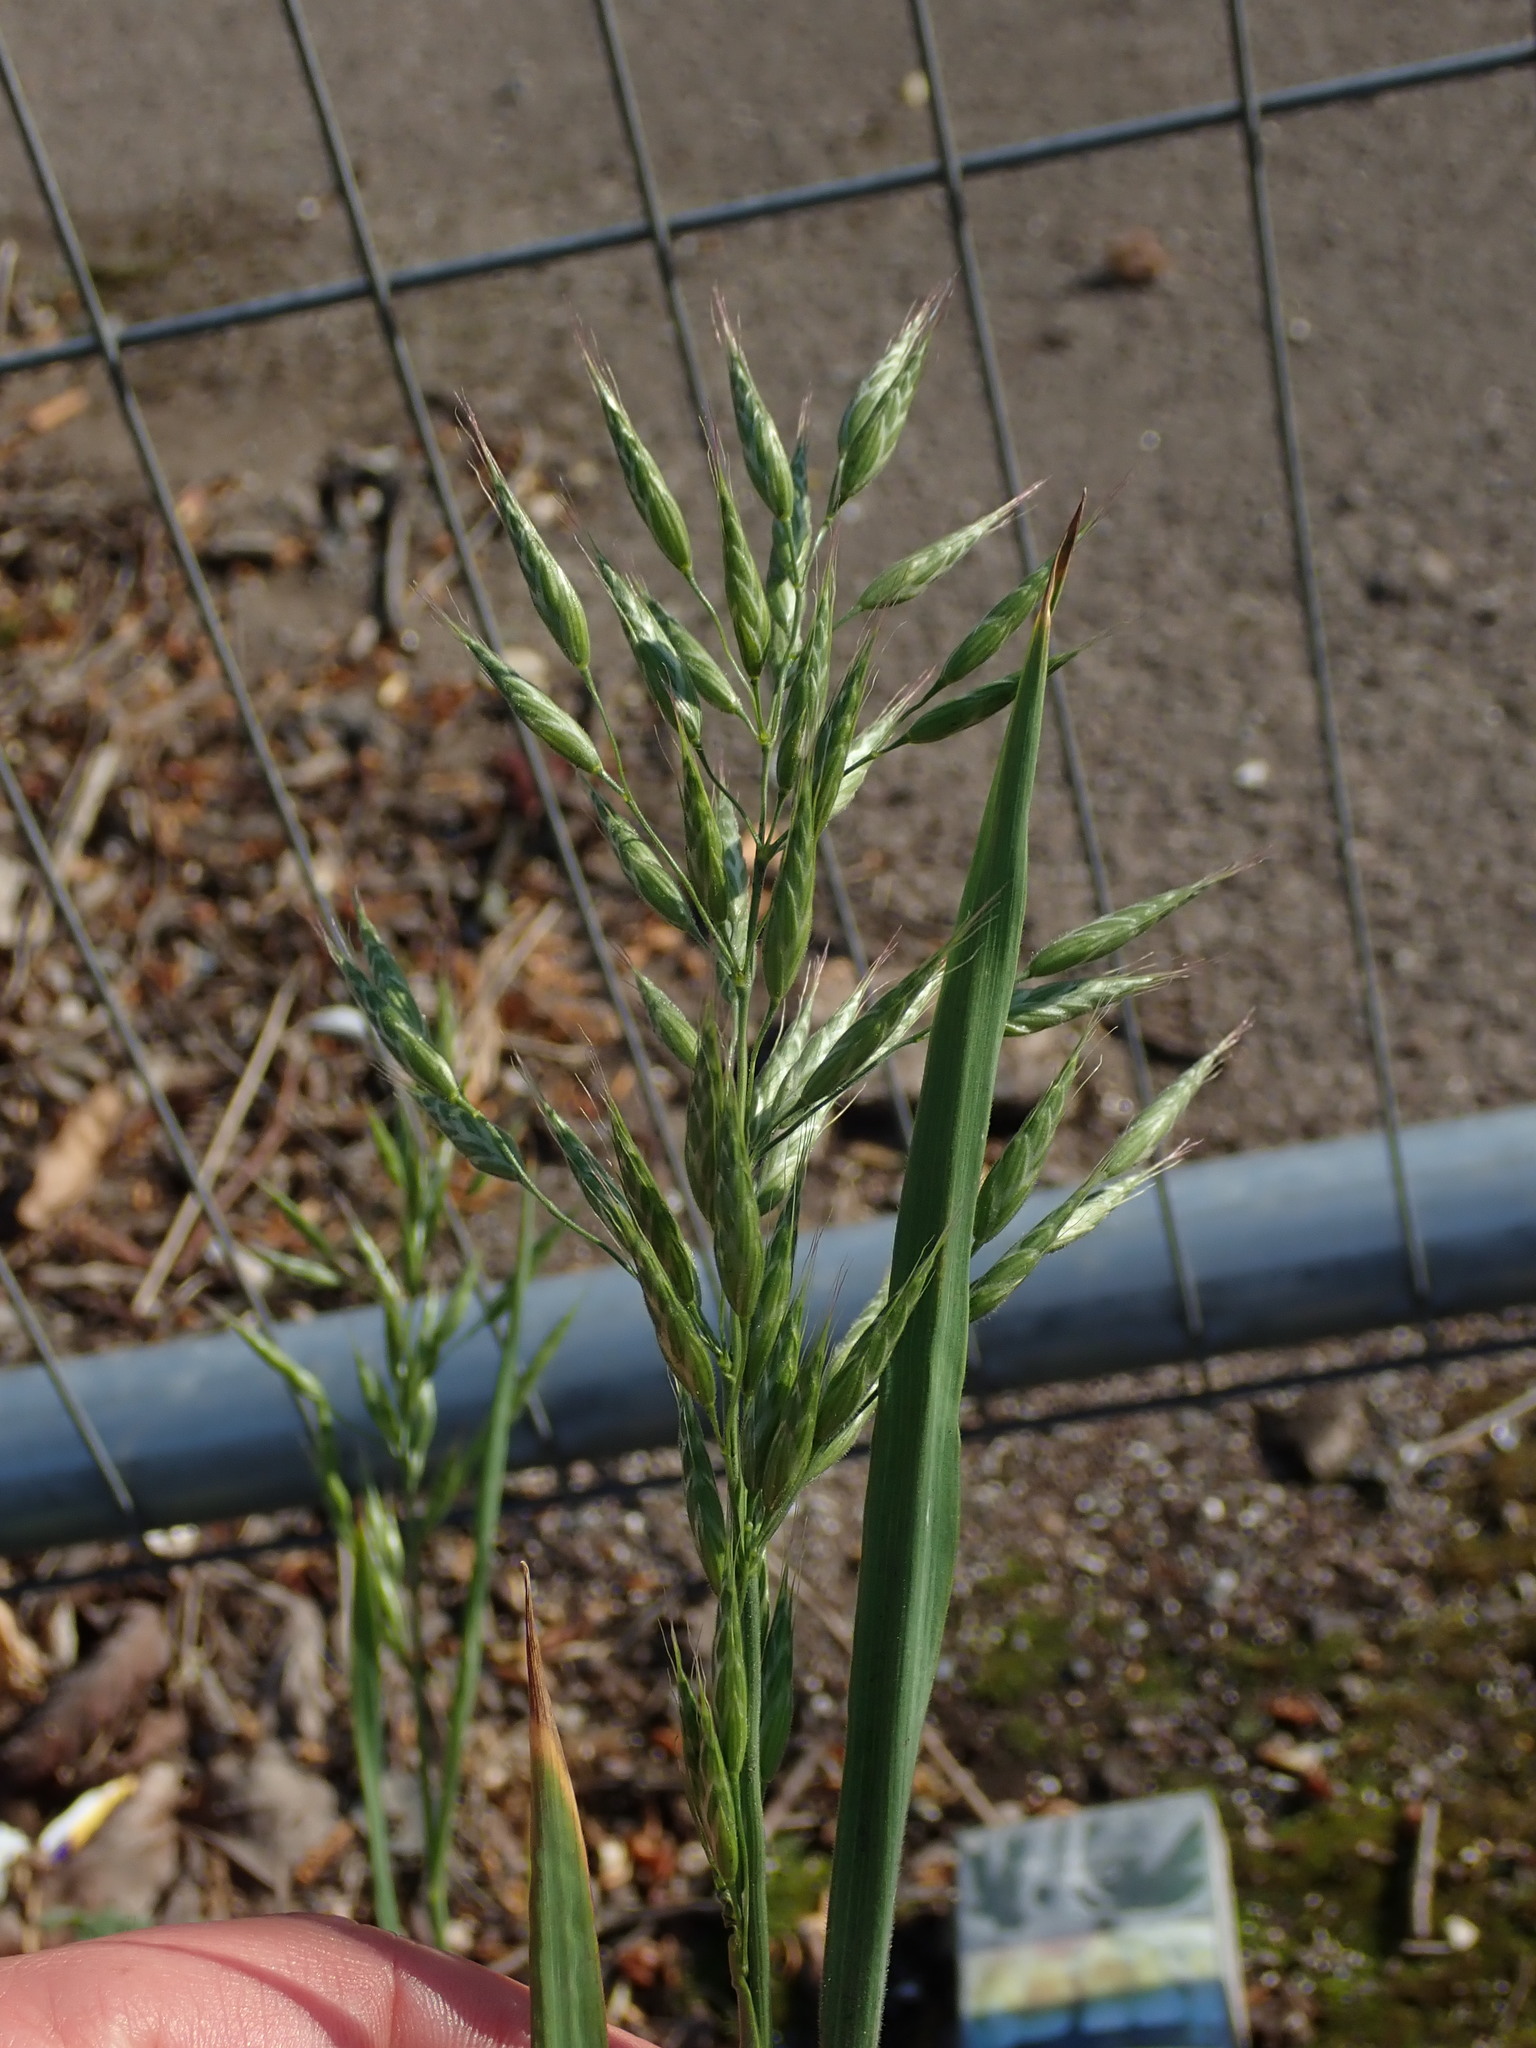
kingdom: Plantae
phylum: Tracheophyta
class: Liliopsida
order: Poales
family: Poaceae
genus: Bromus
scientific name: Bromus hordeaceus
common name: Soft brome
